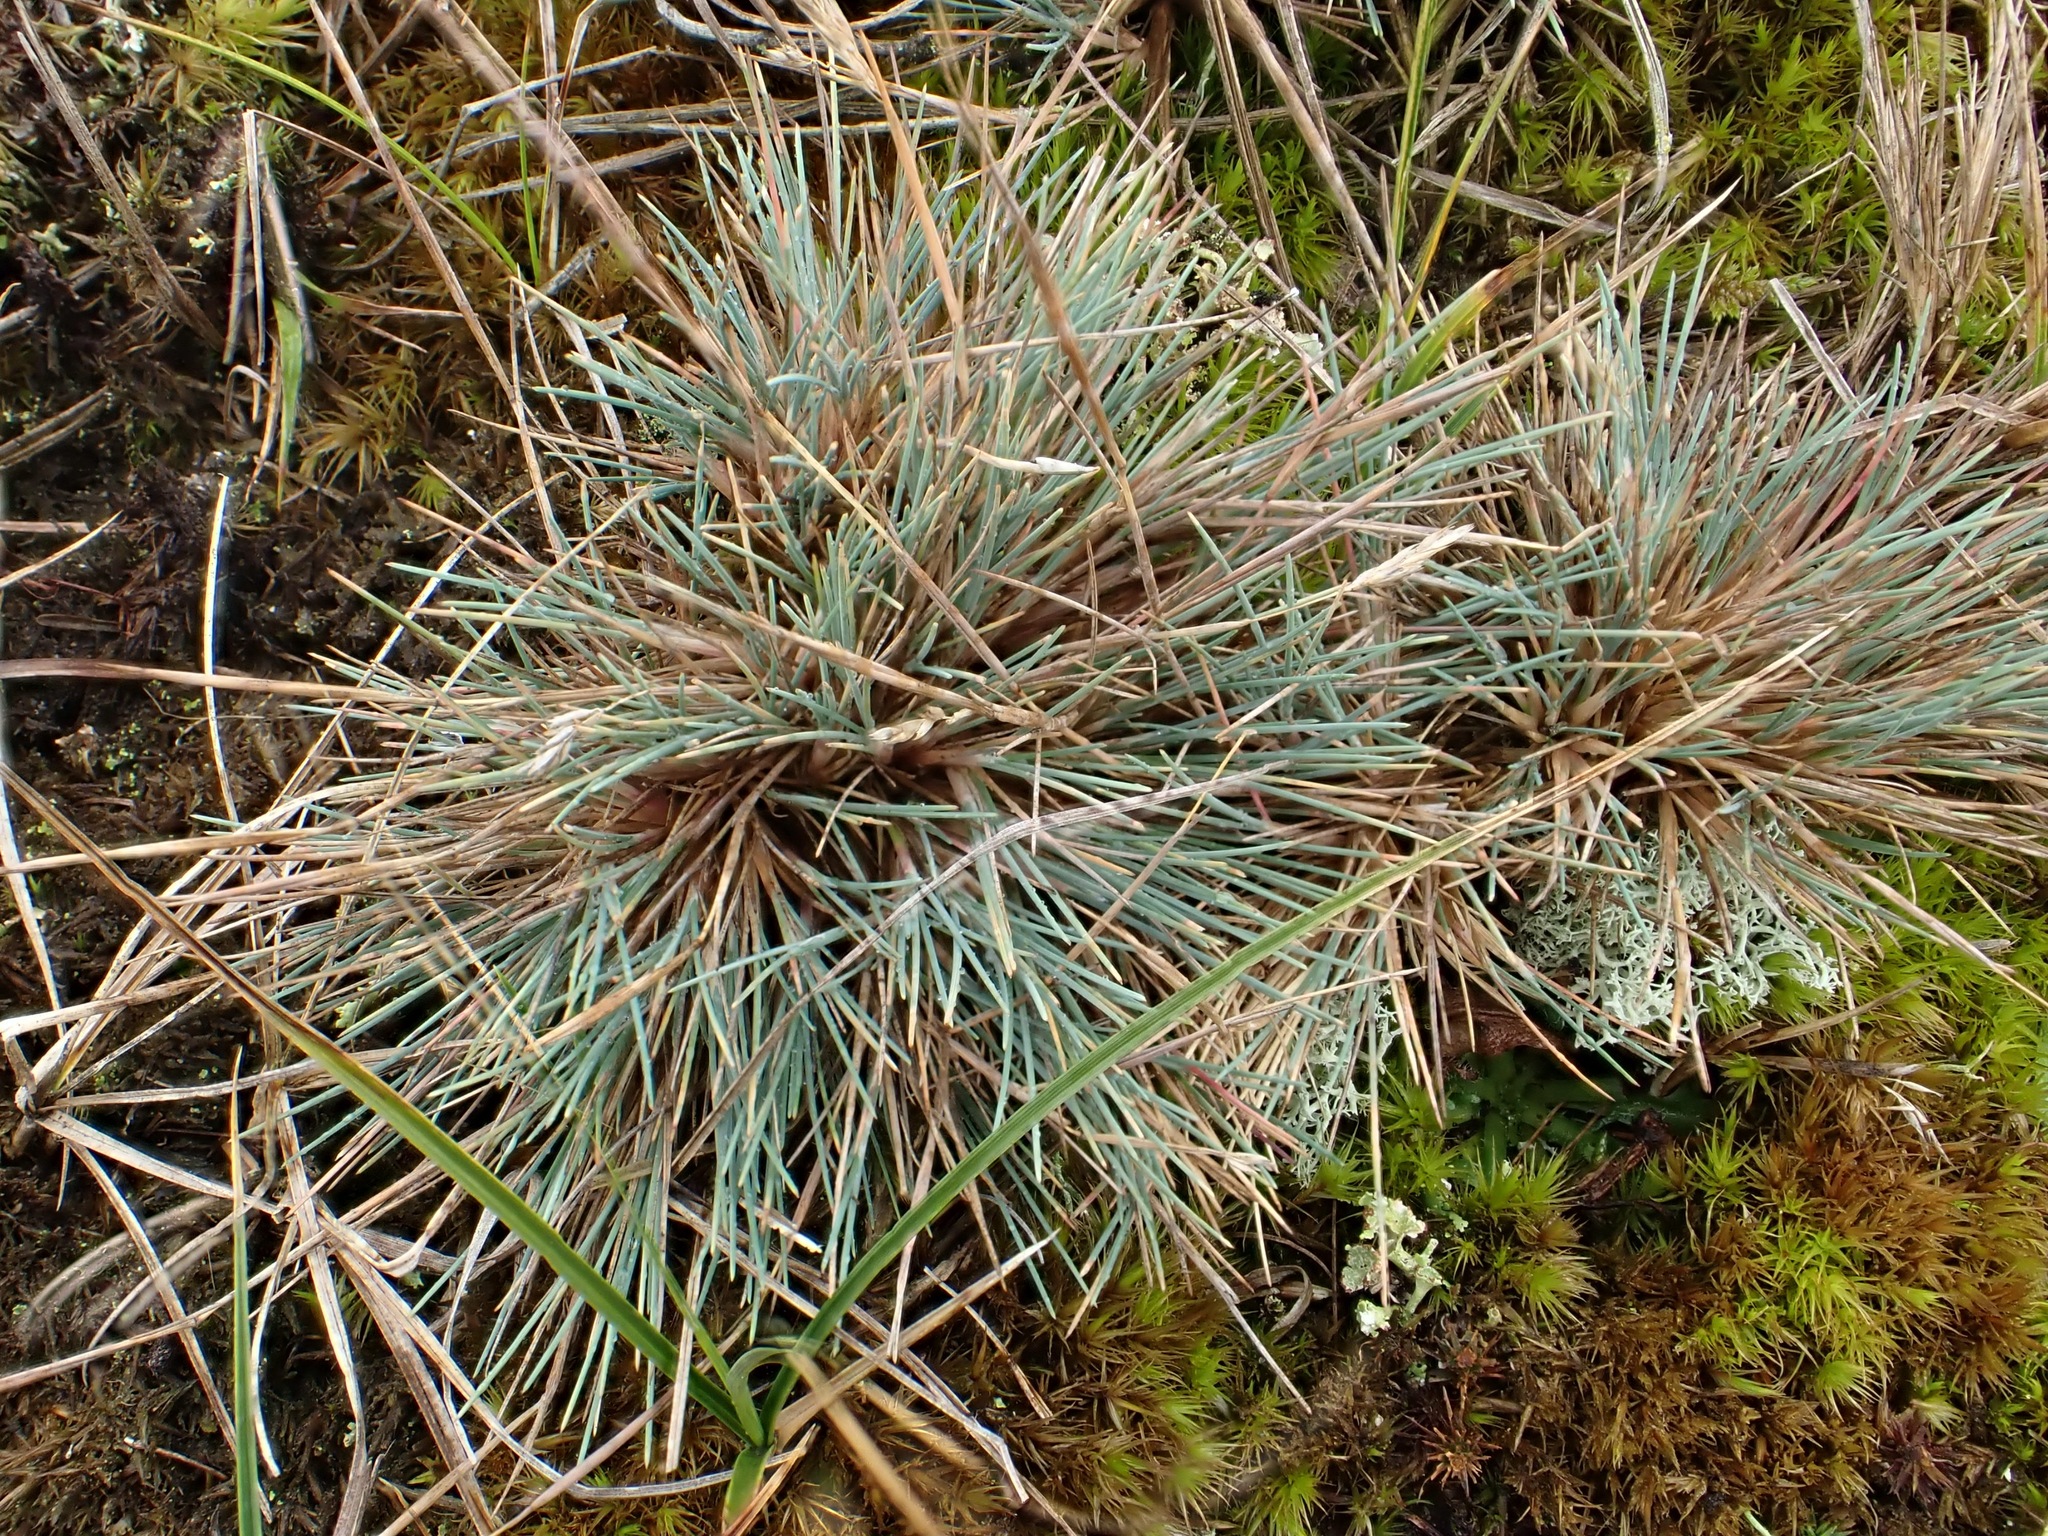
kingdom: Plantae
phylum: Tracheophyta
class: Liliopsida
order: Poales
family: Poaceae
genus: Corynephorus
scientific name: Corynephorus canescens
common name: Grey hair-grass
